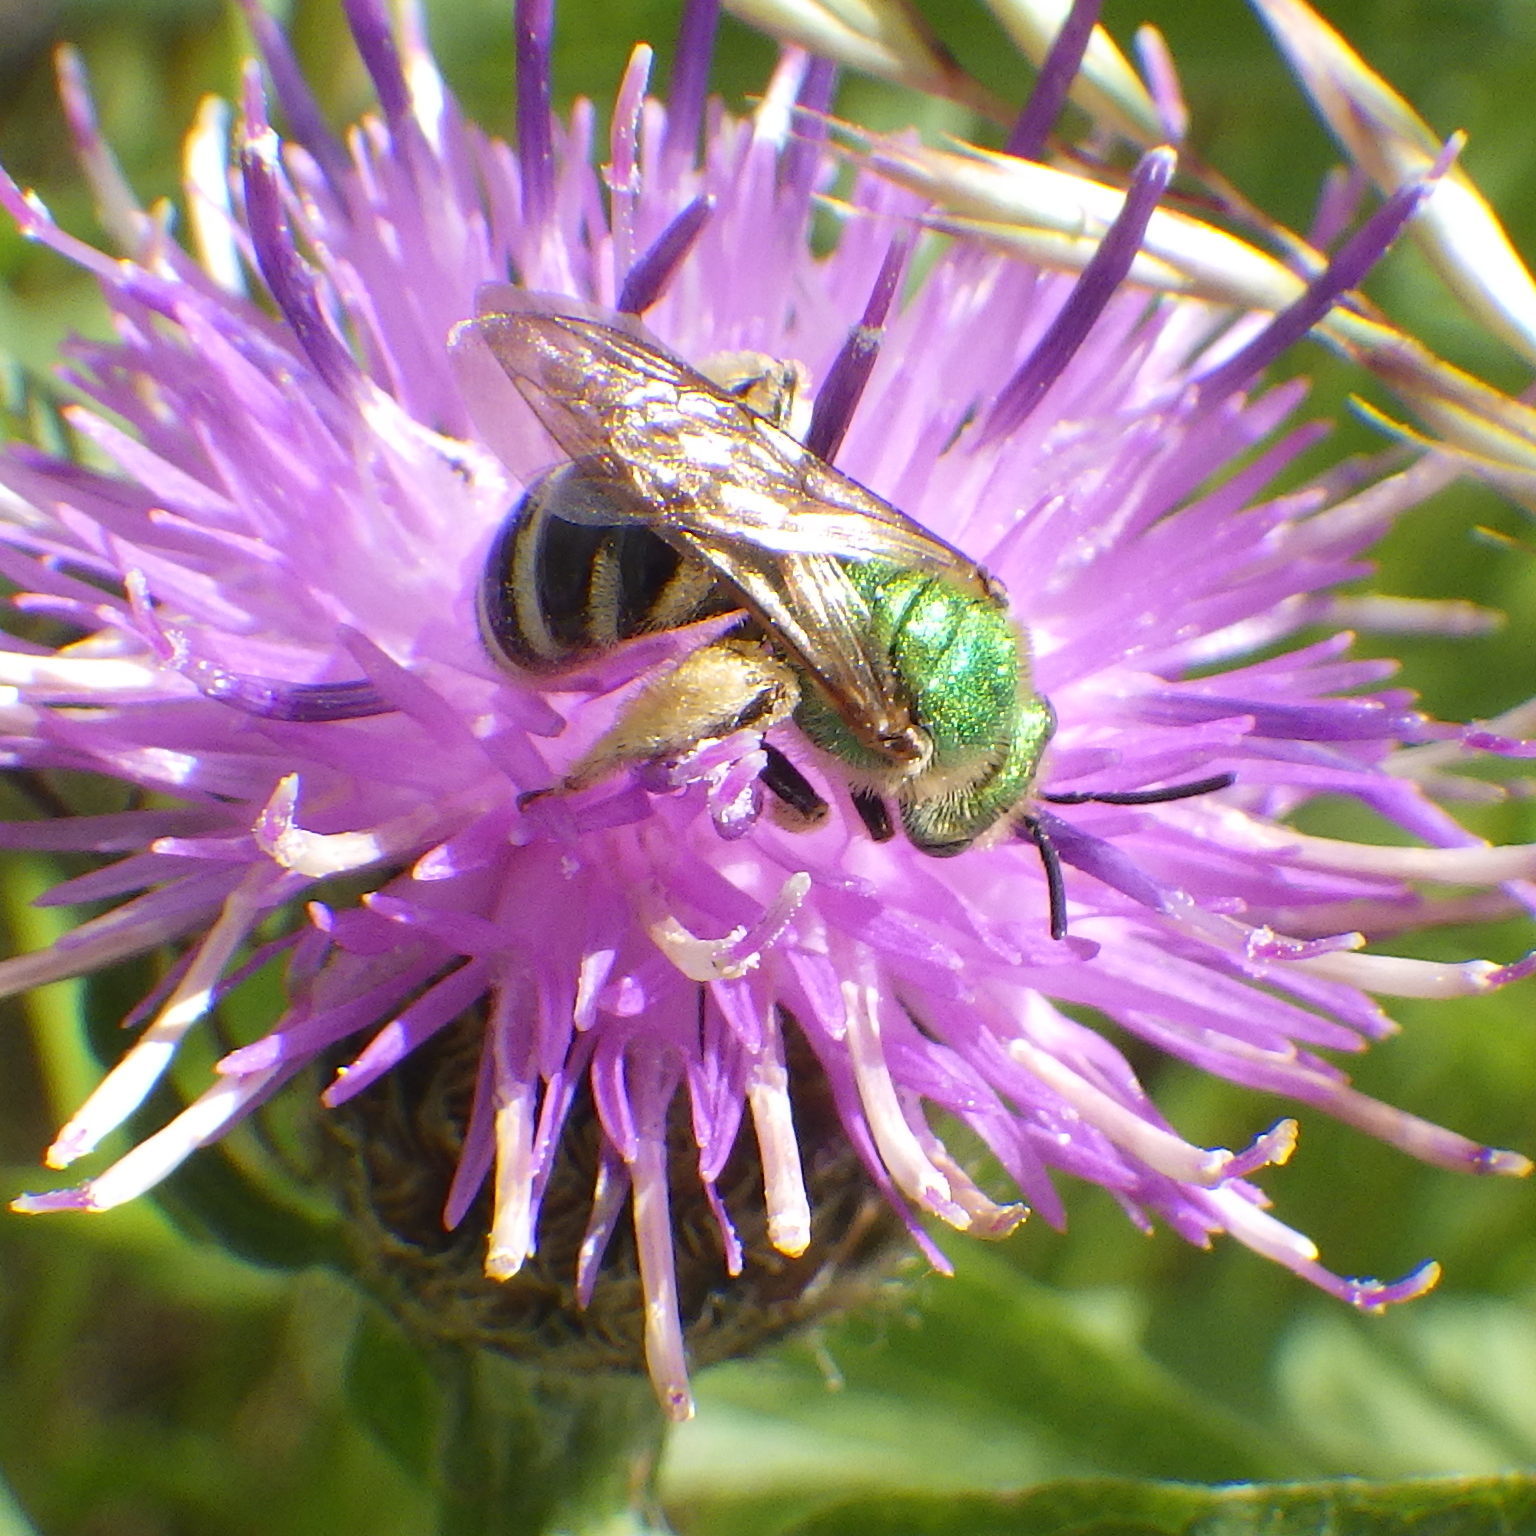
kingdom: Animalia
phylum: Arthropoda
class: Insecta
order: Hymenoptera
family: Halictidae
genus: Agapostemon
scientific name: Agapostemon virescens
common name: Bicolored striped sweat bee
